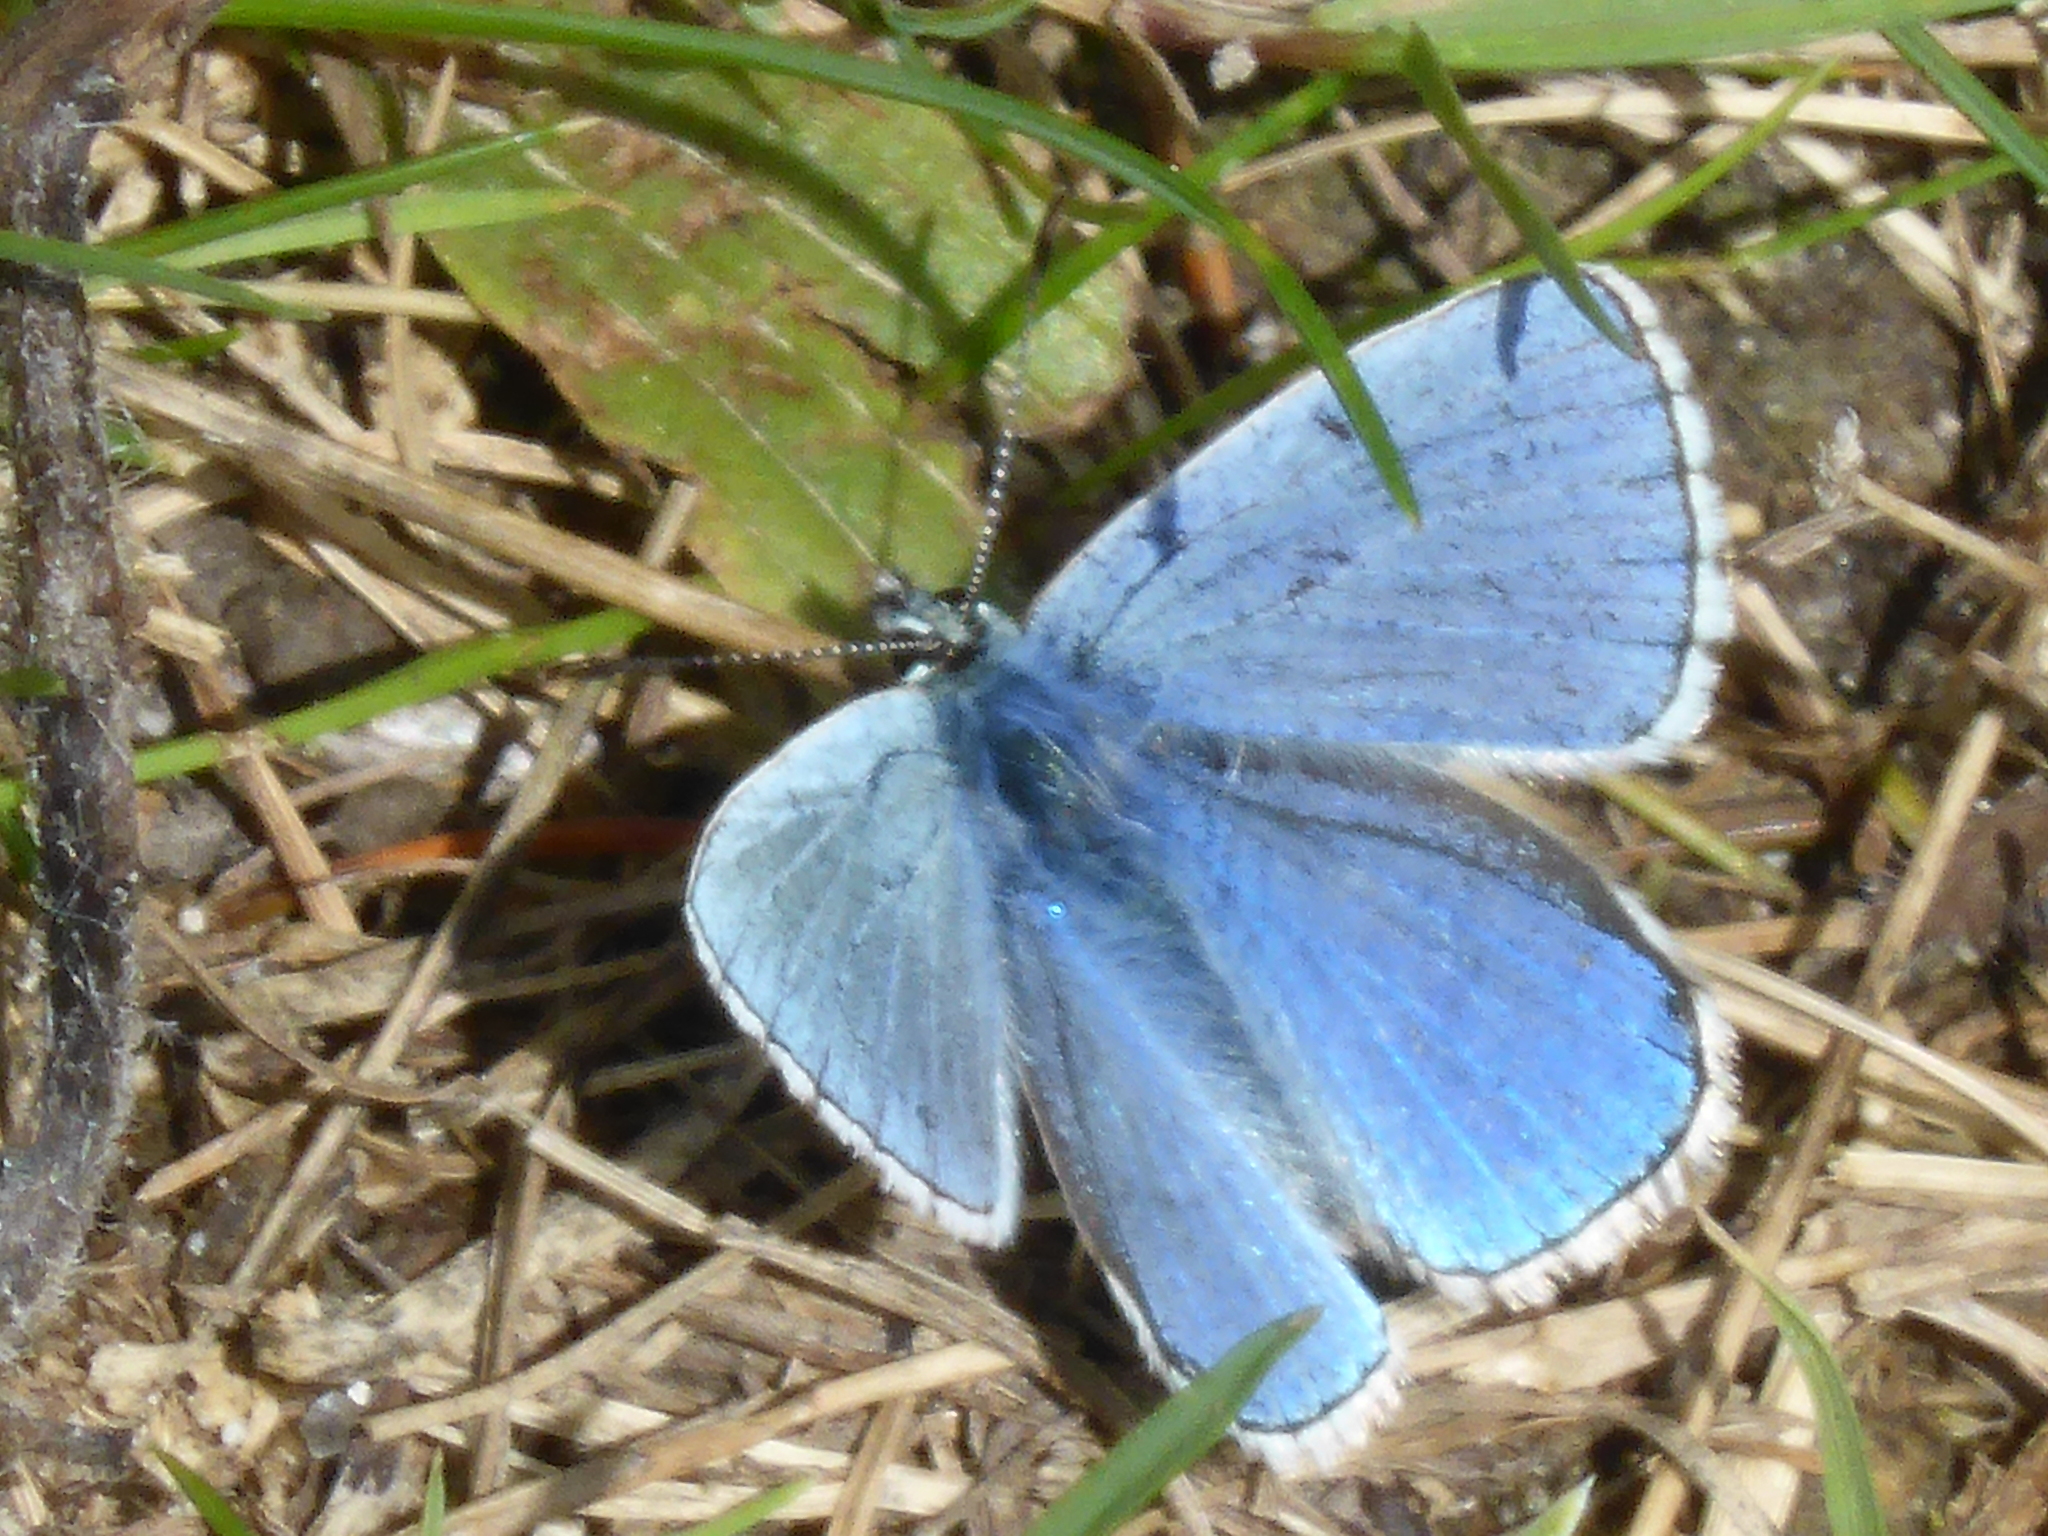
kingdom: Animalia
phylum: Arthropoda
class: Insecta
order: Lepidoptera
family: Lycaenidae
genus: Lysandra
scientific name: Lysandra bellargus
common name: Adonis blue
